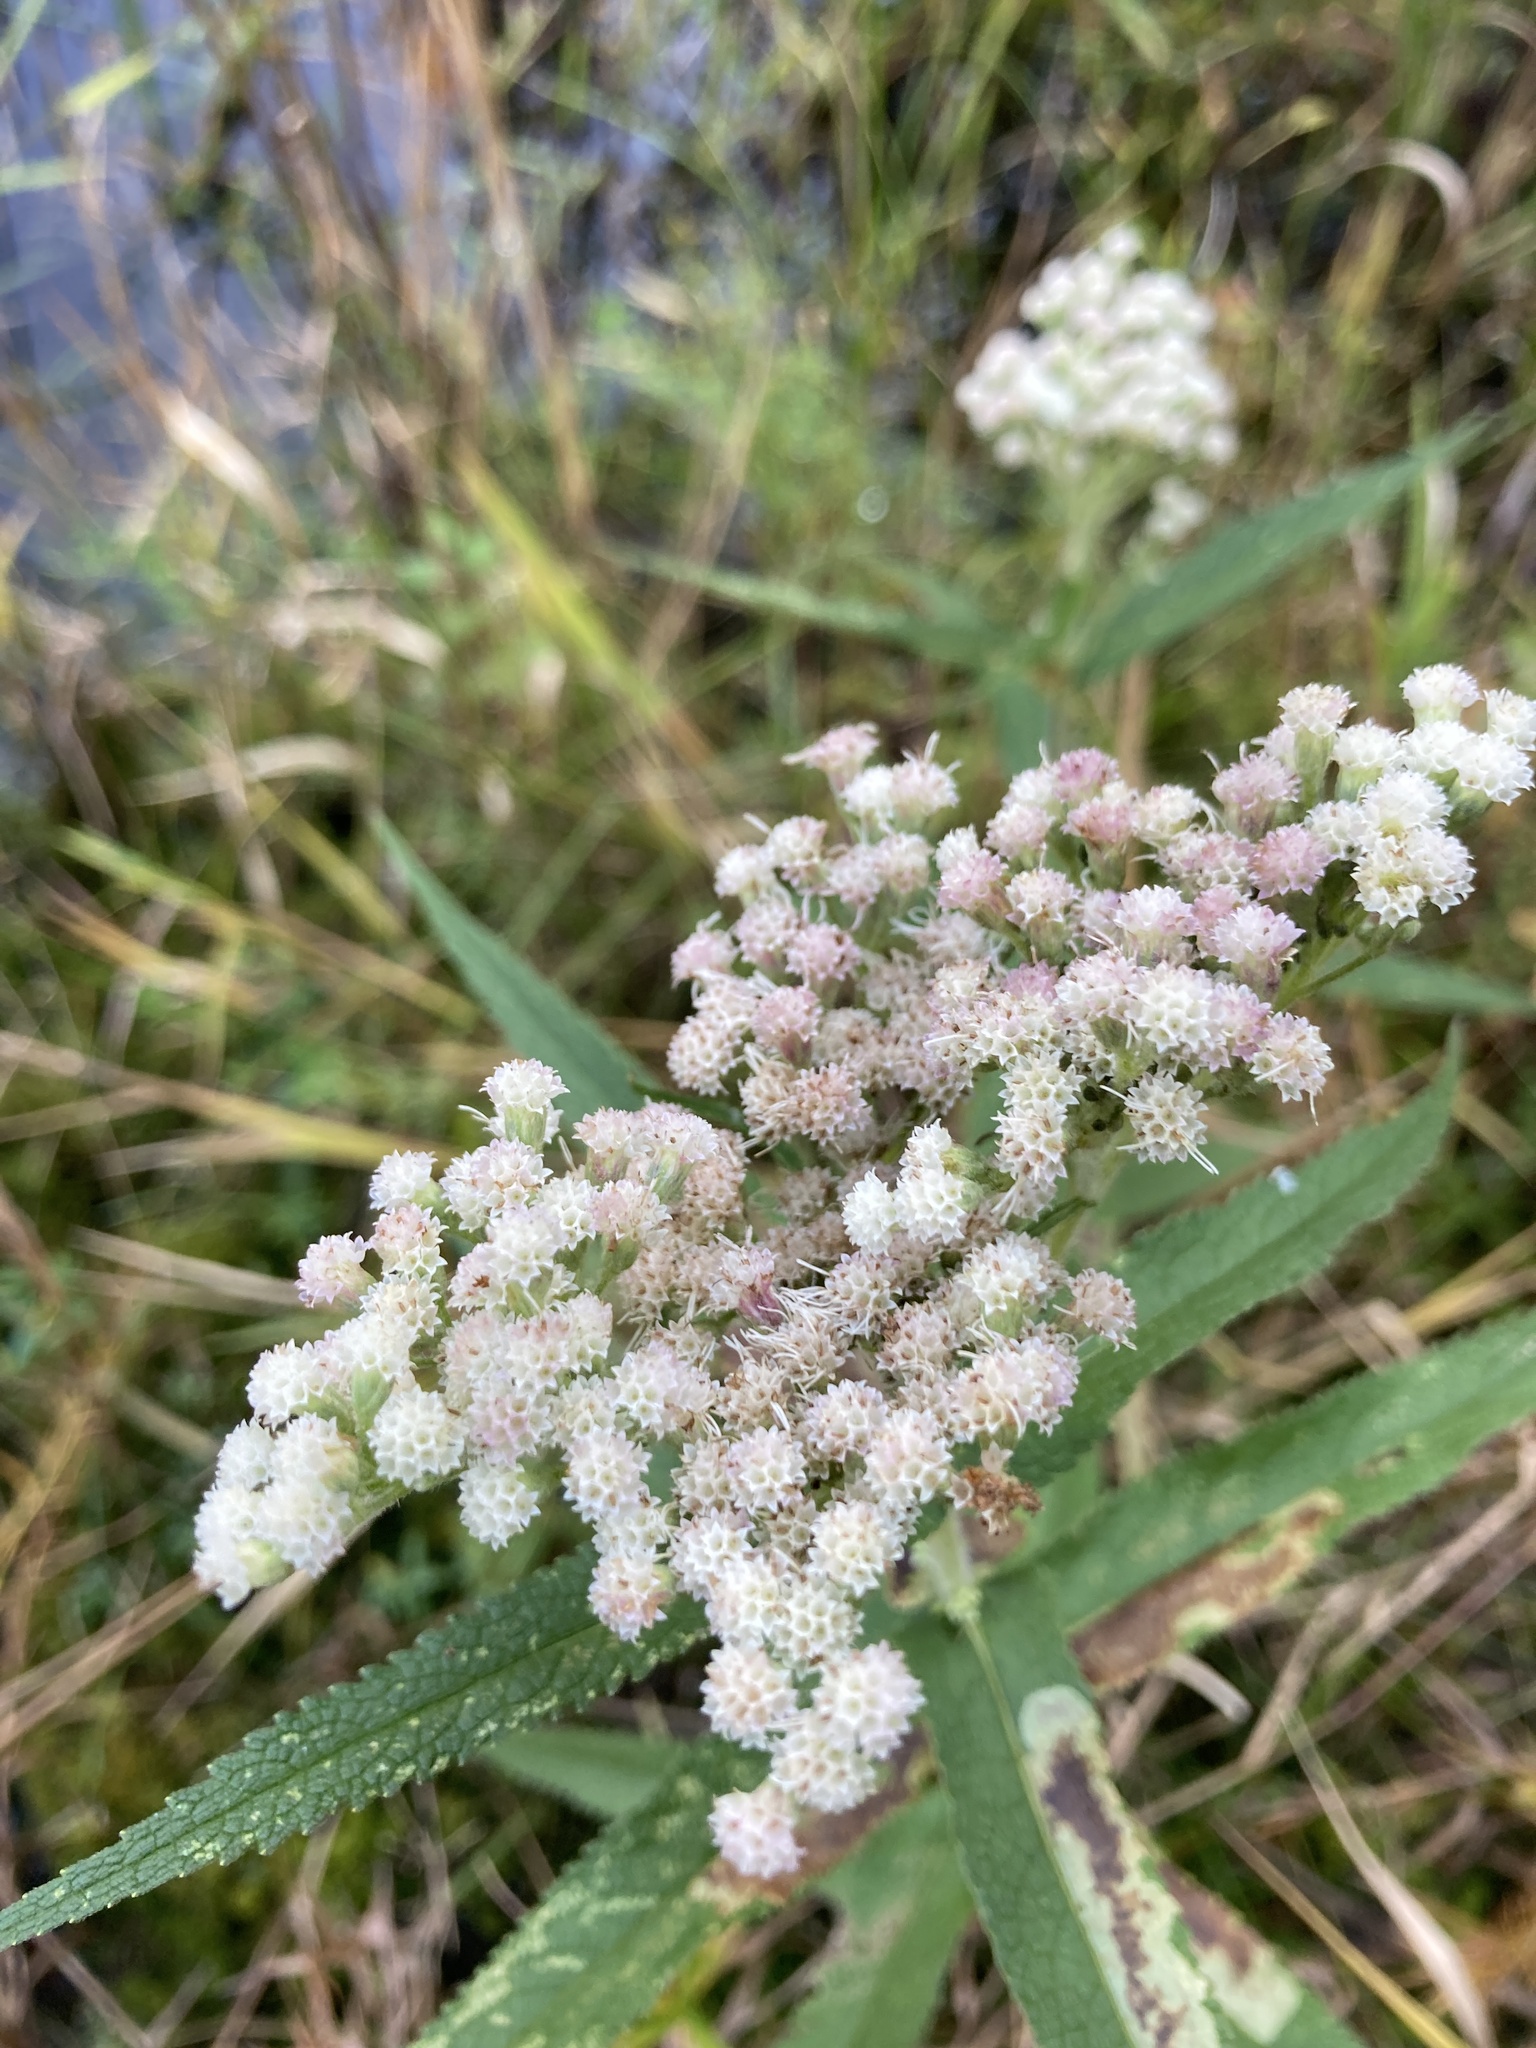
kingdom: Plantae
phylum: Tracheophyta
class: Magnoliopsida
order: Asterales
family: Asteraceae
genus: Eupatorium
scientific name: Eupatorium perfoliatum
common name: Boneset
